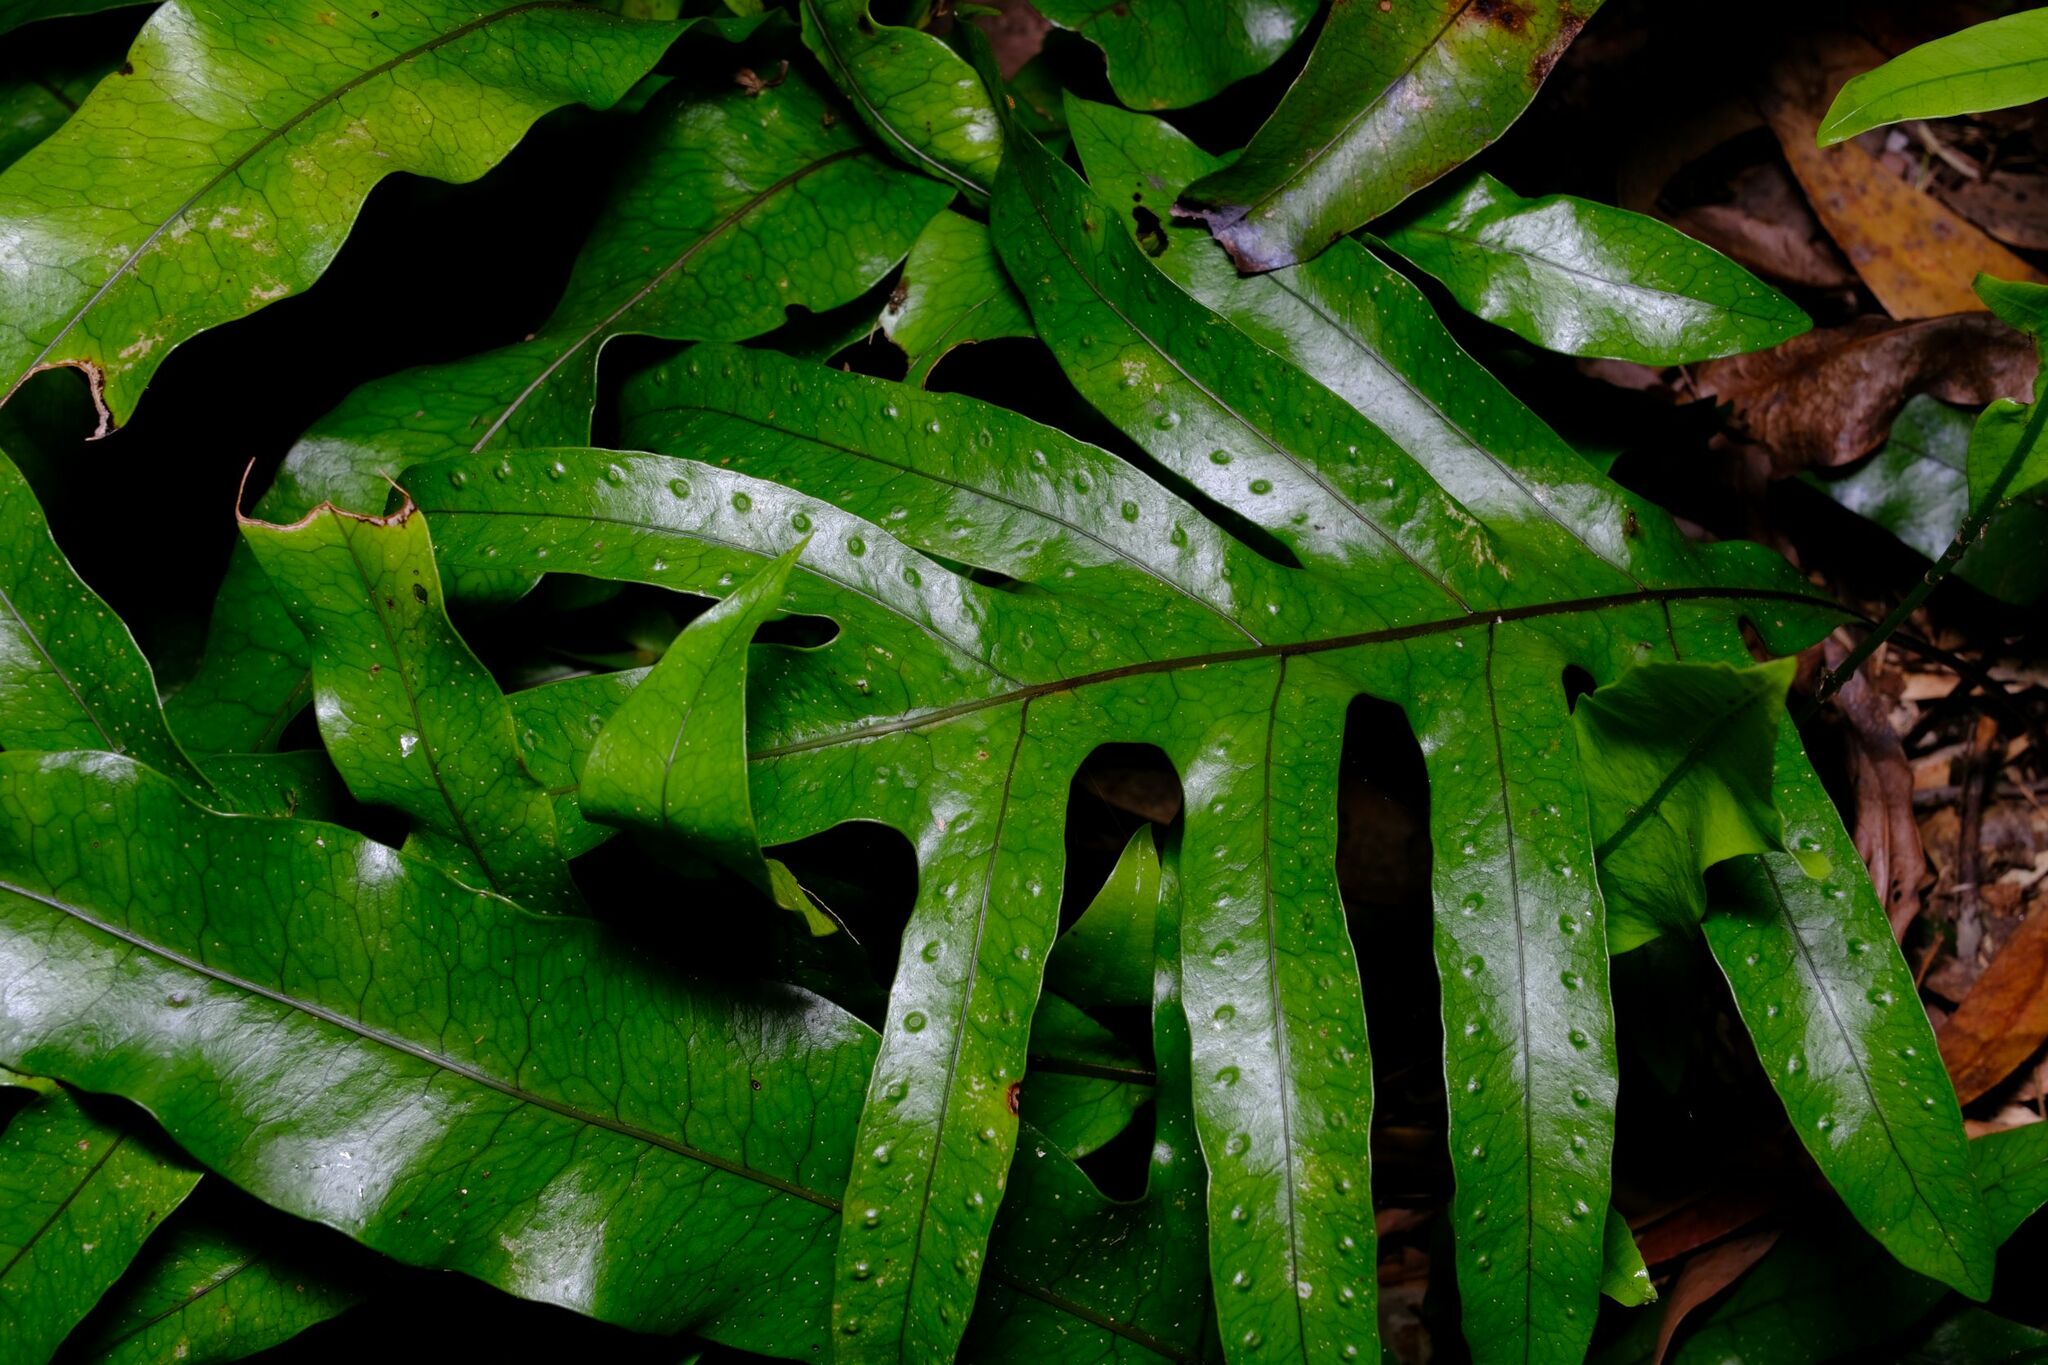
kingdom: Plantae
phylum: Tracheophyta
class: Polypodiopsida
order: Polypodiales
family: Polypodiaceae
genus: Lecanopteris
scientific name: Lecanopteris pustulata
